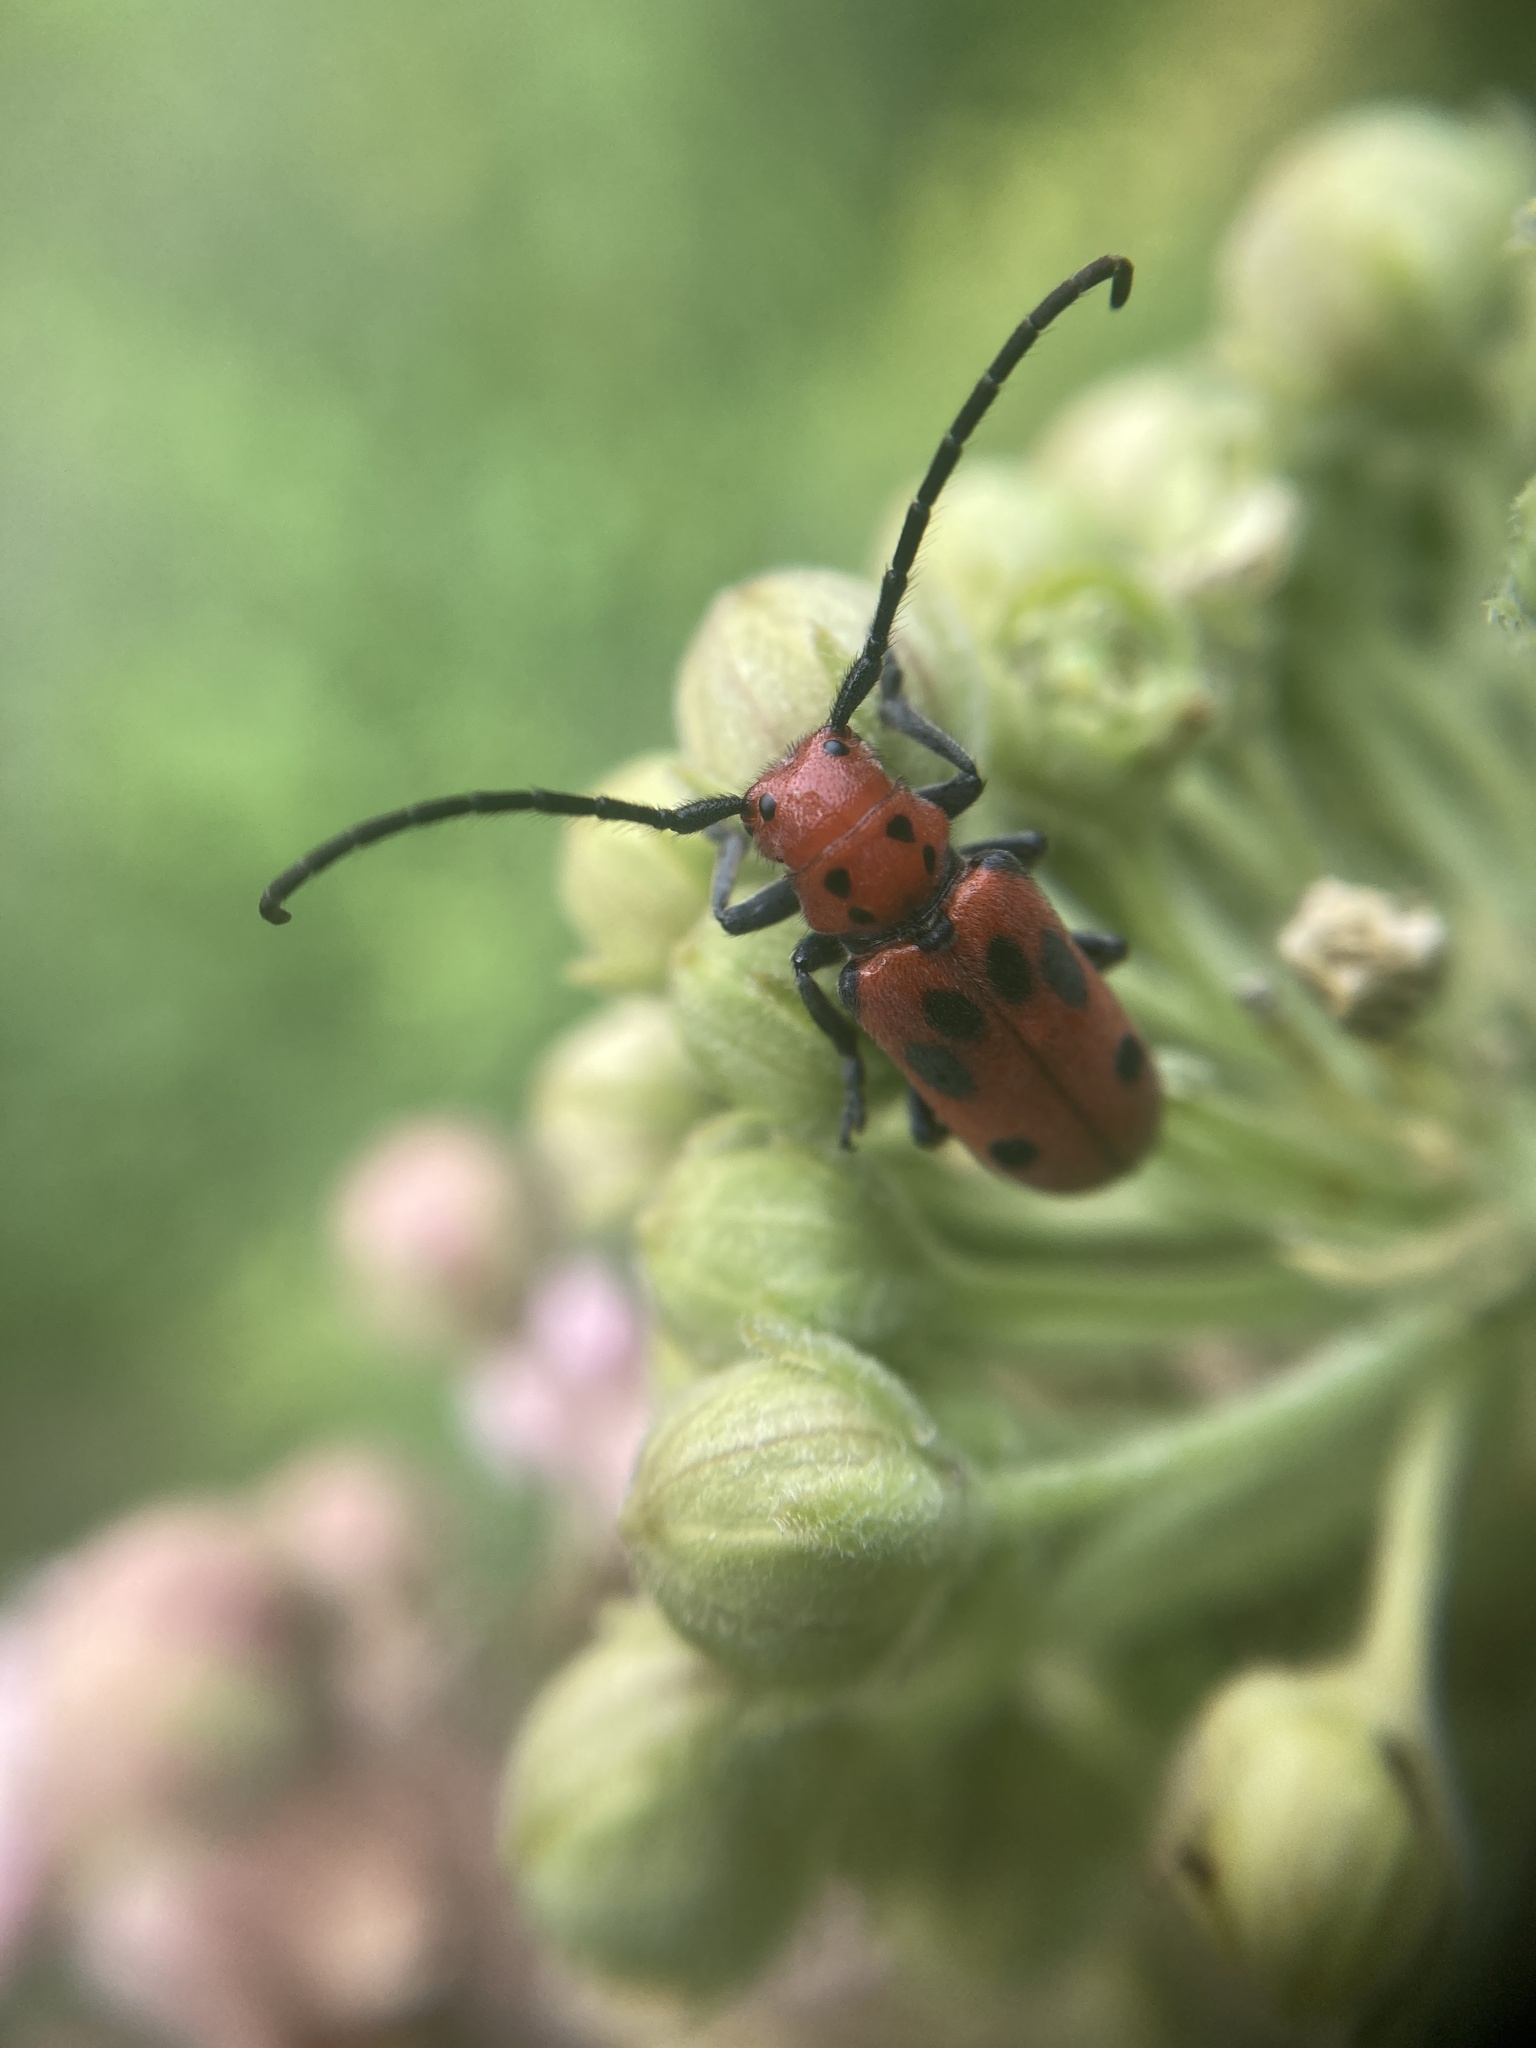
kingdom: Animalia
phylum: Arthropoda
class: Insecta
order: Coleoptera
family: Cerambycidae
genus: Tetraopes
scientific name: Tetraopes tetrophthalmus
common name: Red milkweed beetle
